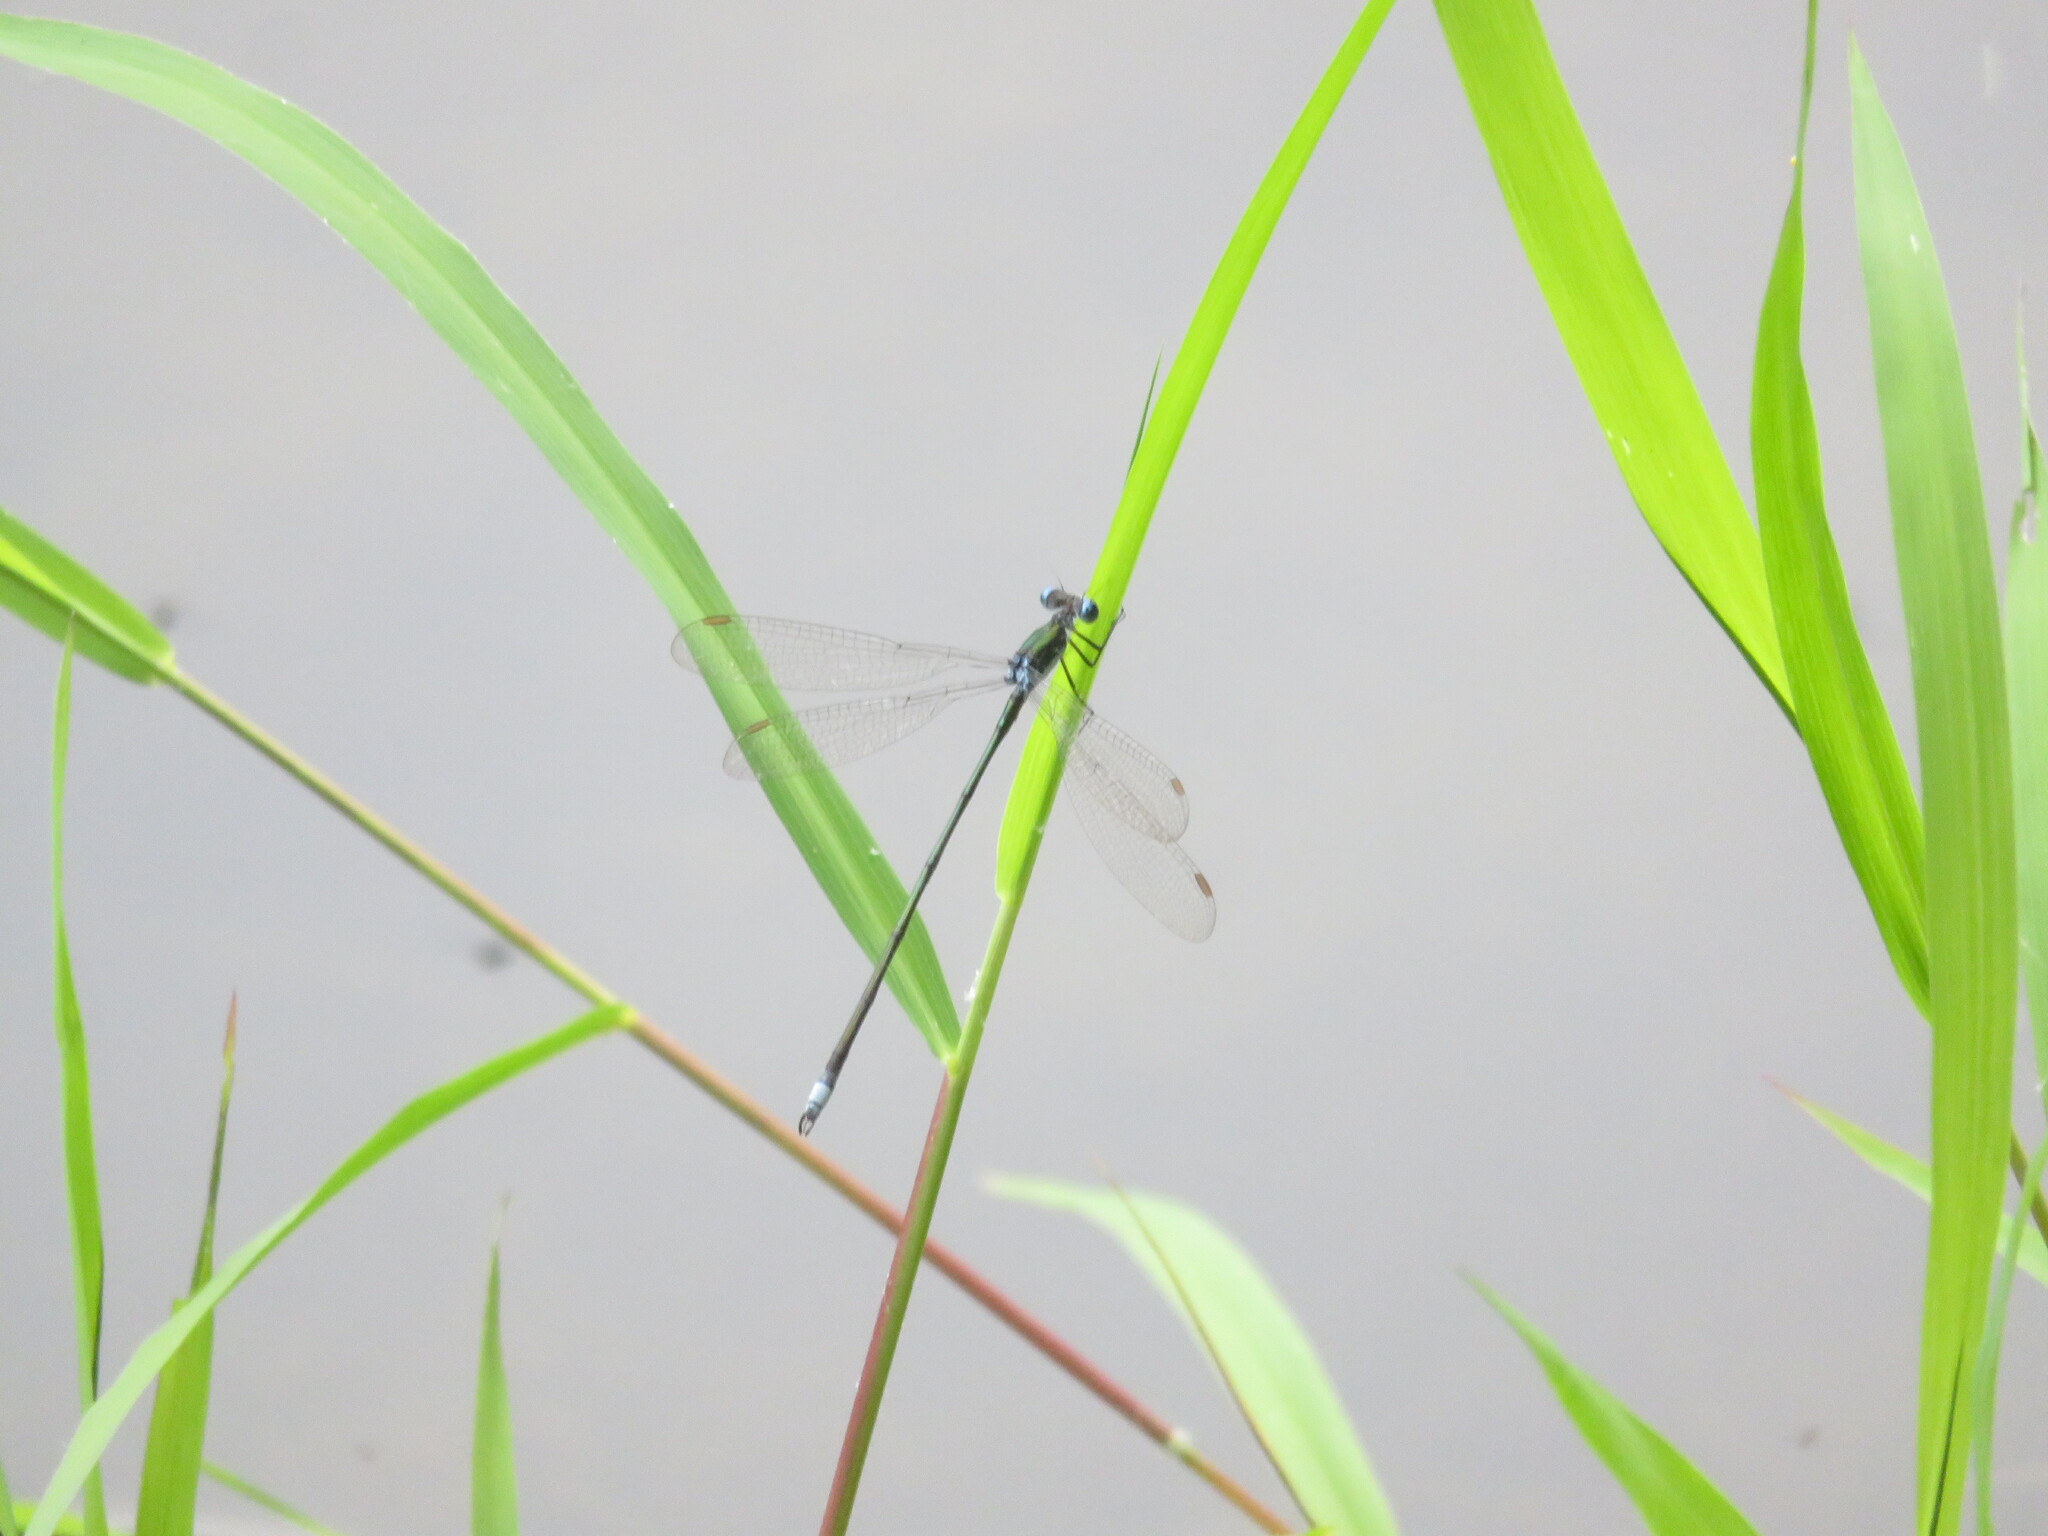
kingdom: Animalia
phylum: Arthropoda
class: Insecta
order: Odonata
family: Lestidae
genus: Lestes
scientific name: Lestes vigilax
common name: Swamp spreadwing
